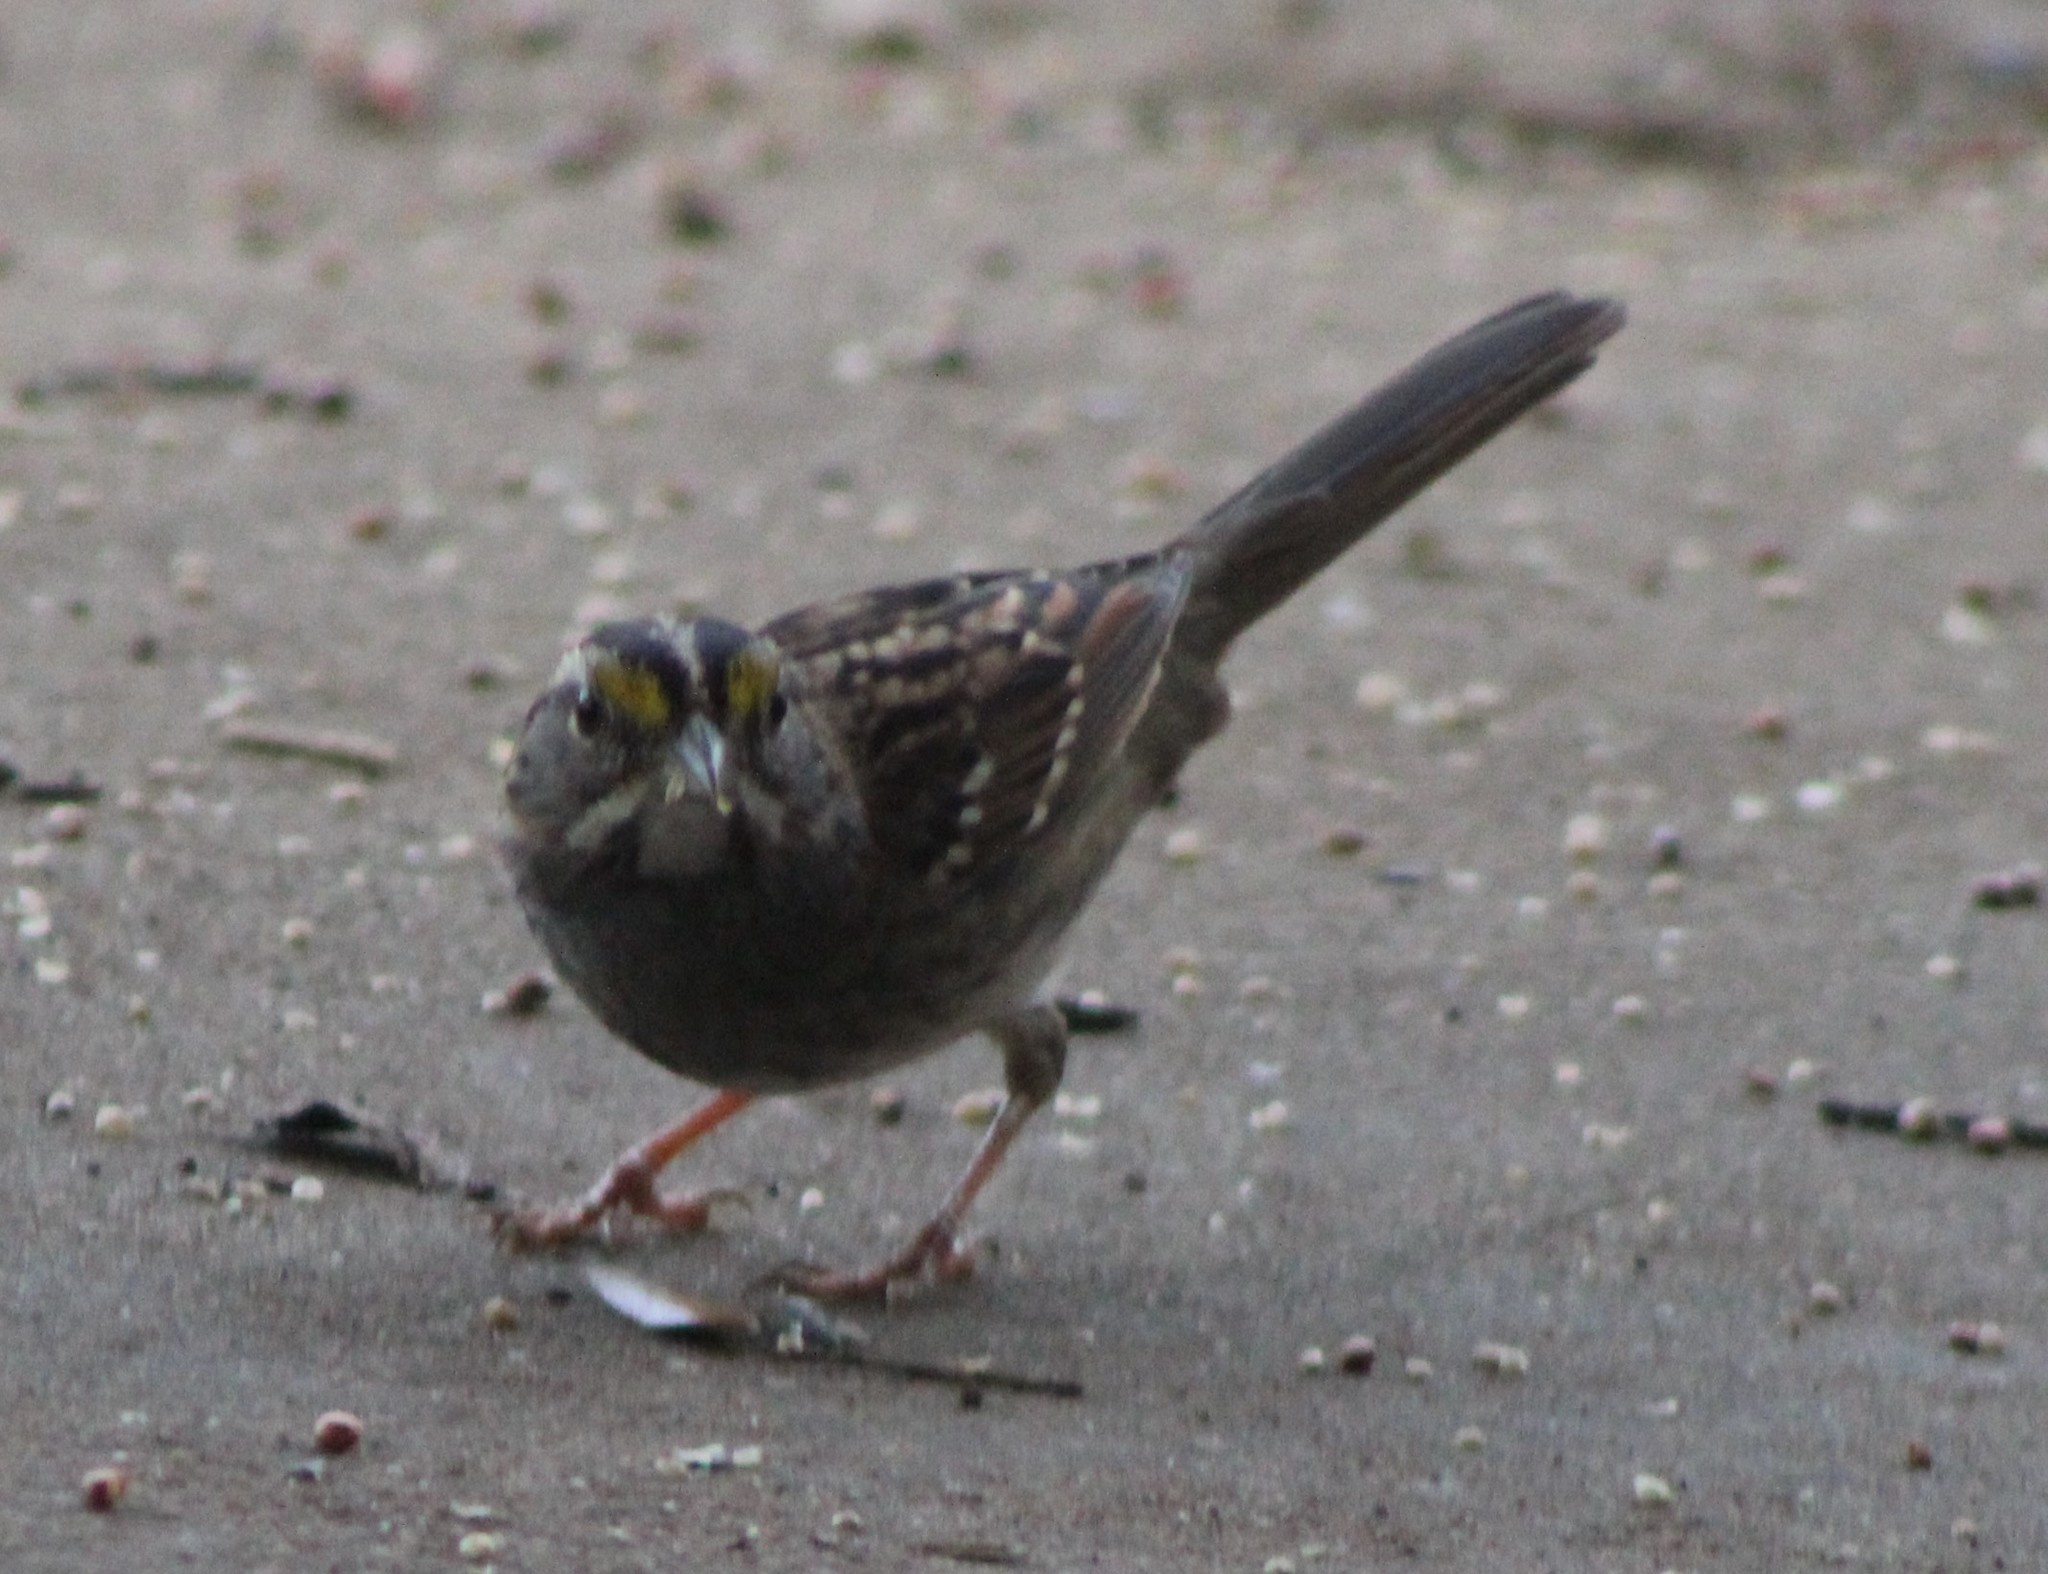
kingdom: Animalia
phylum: Chordata
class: Aves
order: Passeriformes
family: Passerellidae
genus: Zonotrichia
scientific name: Zonotrichia albicollis
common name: White-throated sparrow
